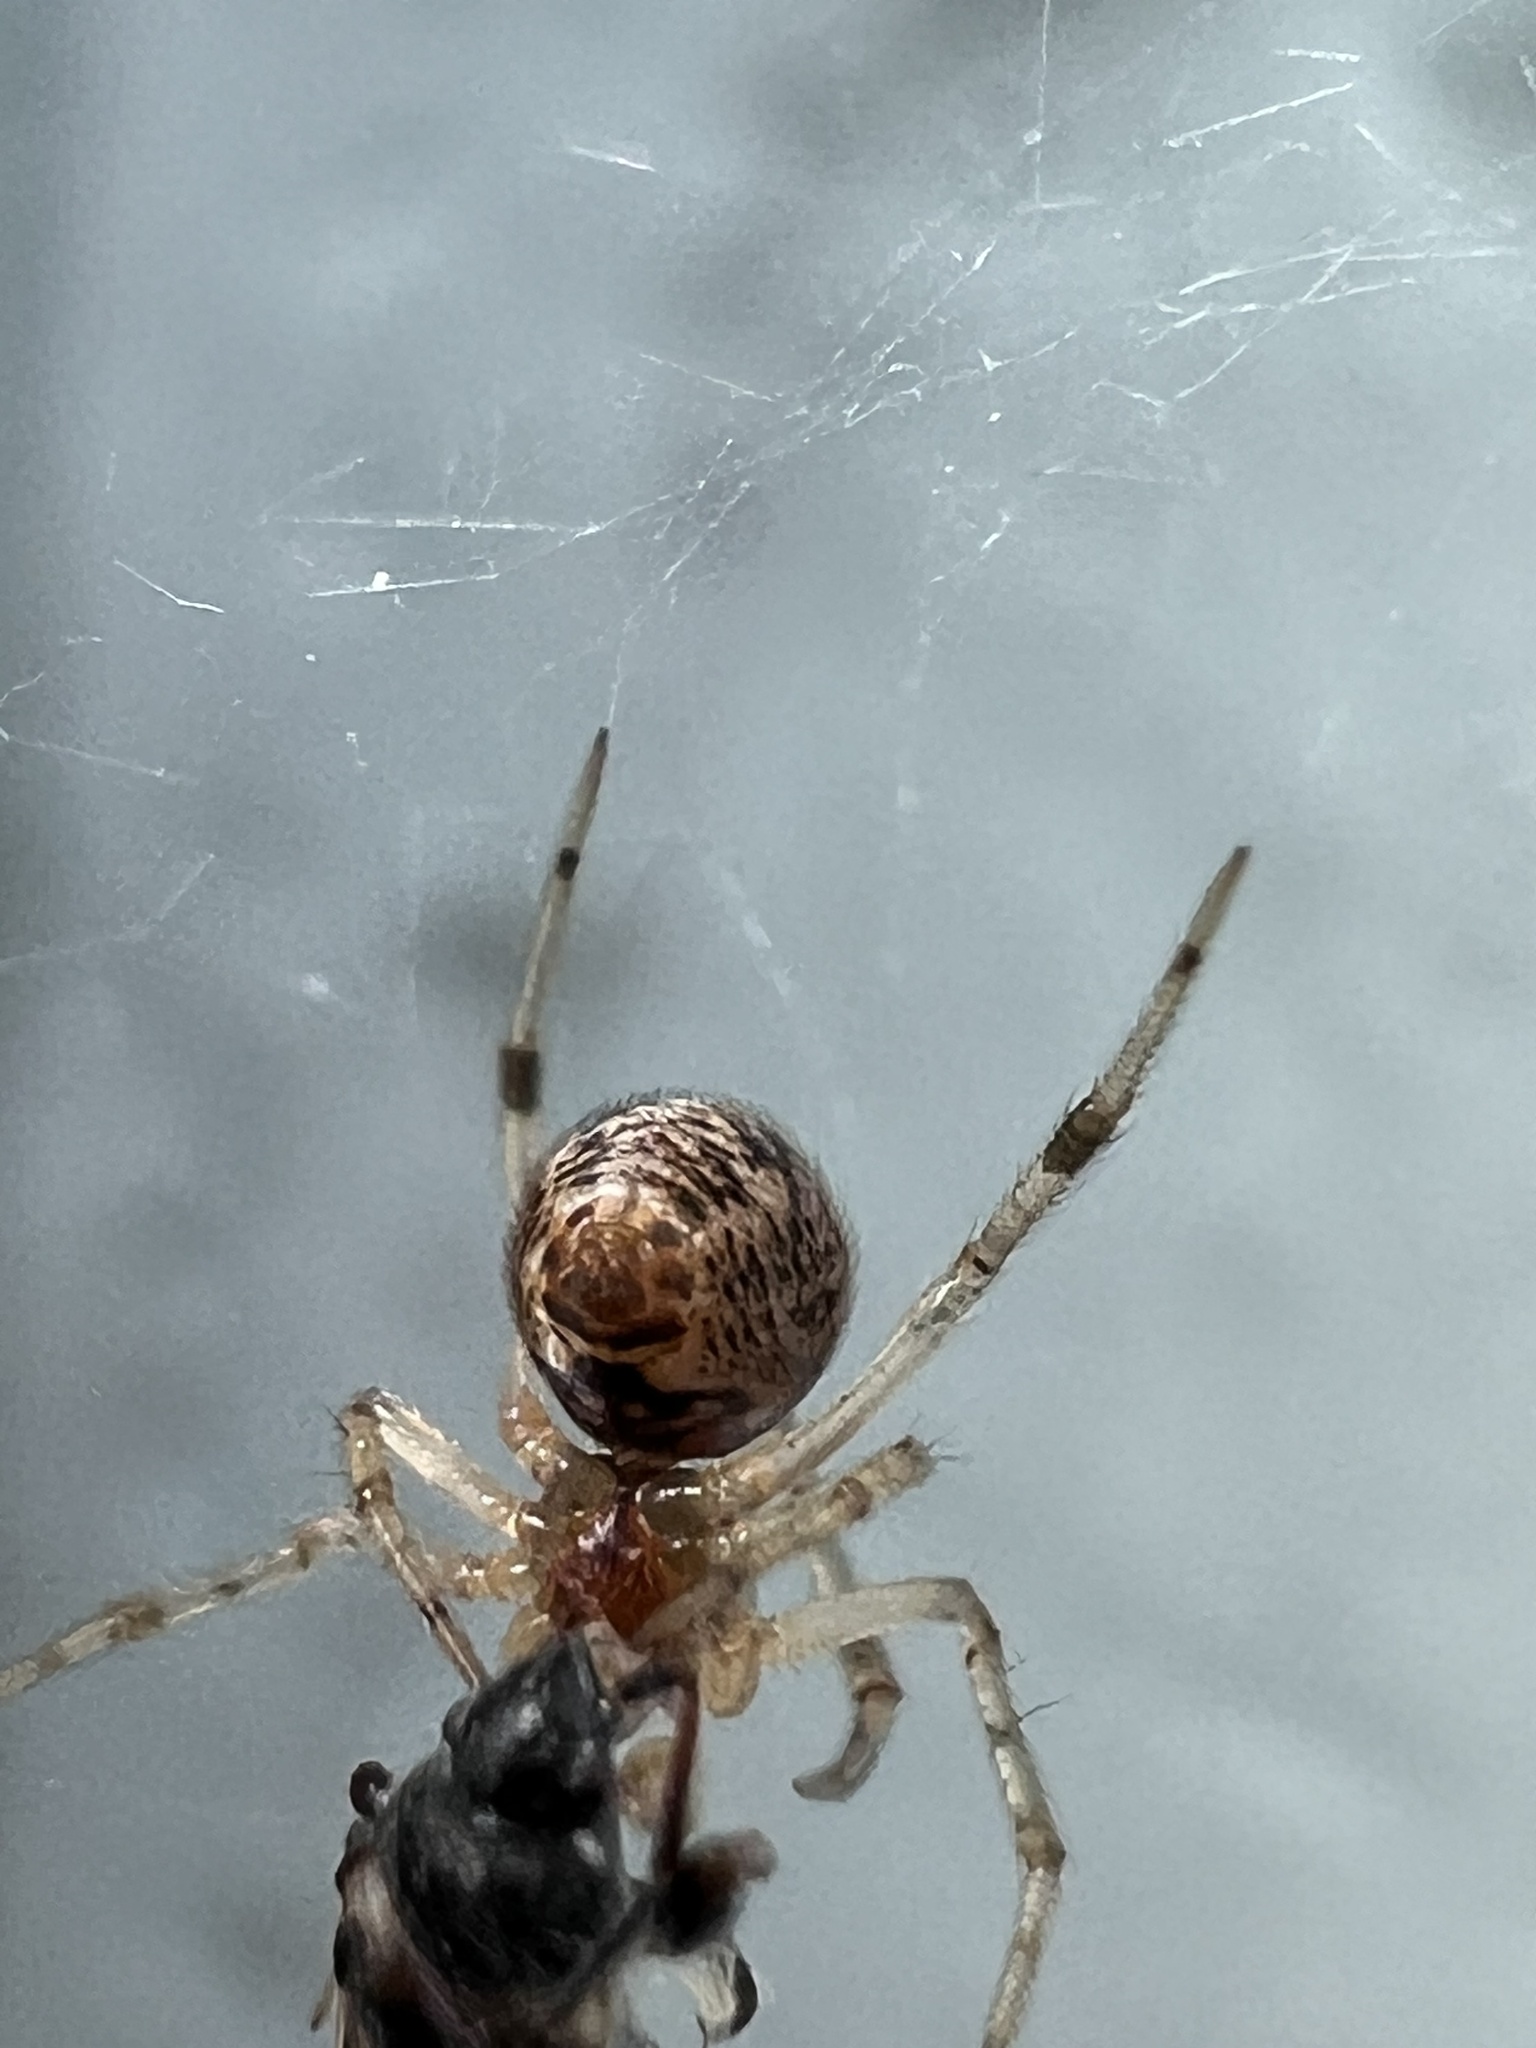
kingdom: Animalia
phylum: Arthropoda
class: Arachnida
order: Araneae
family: Theridiidae
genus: Parasteatoda
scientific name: Parasteatoda tepidariorum
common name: Common house spider
